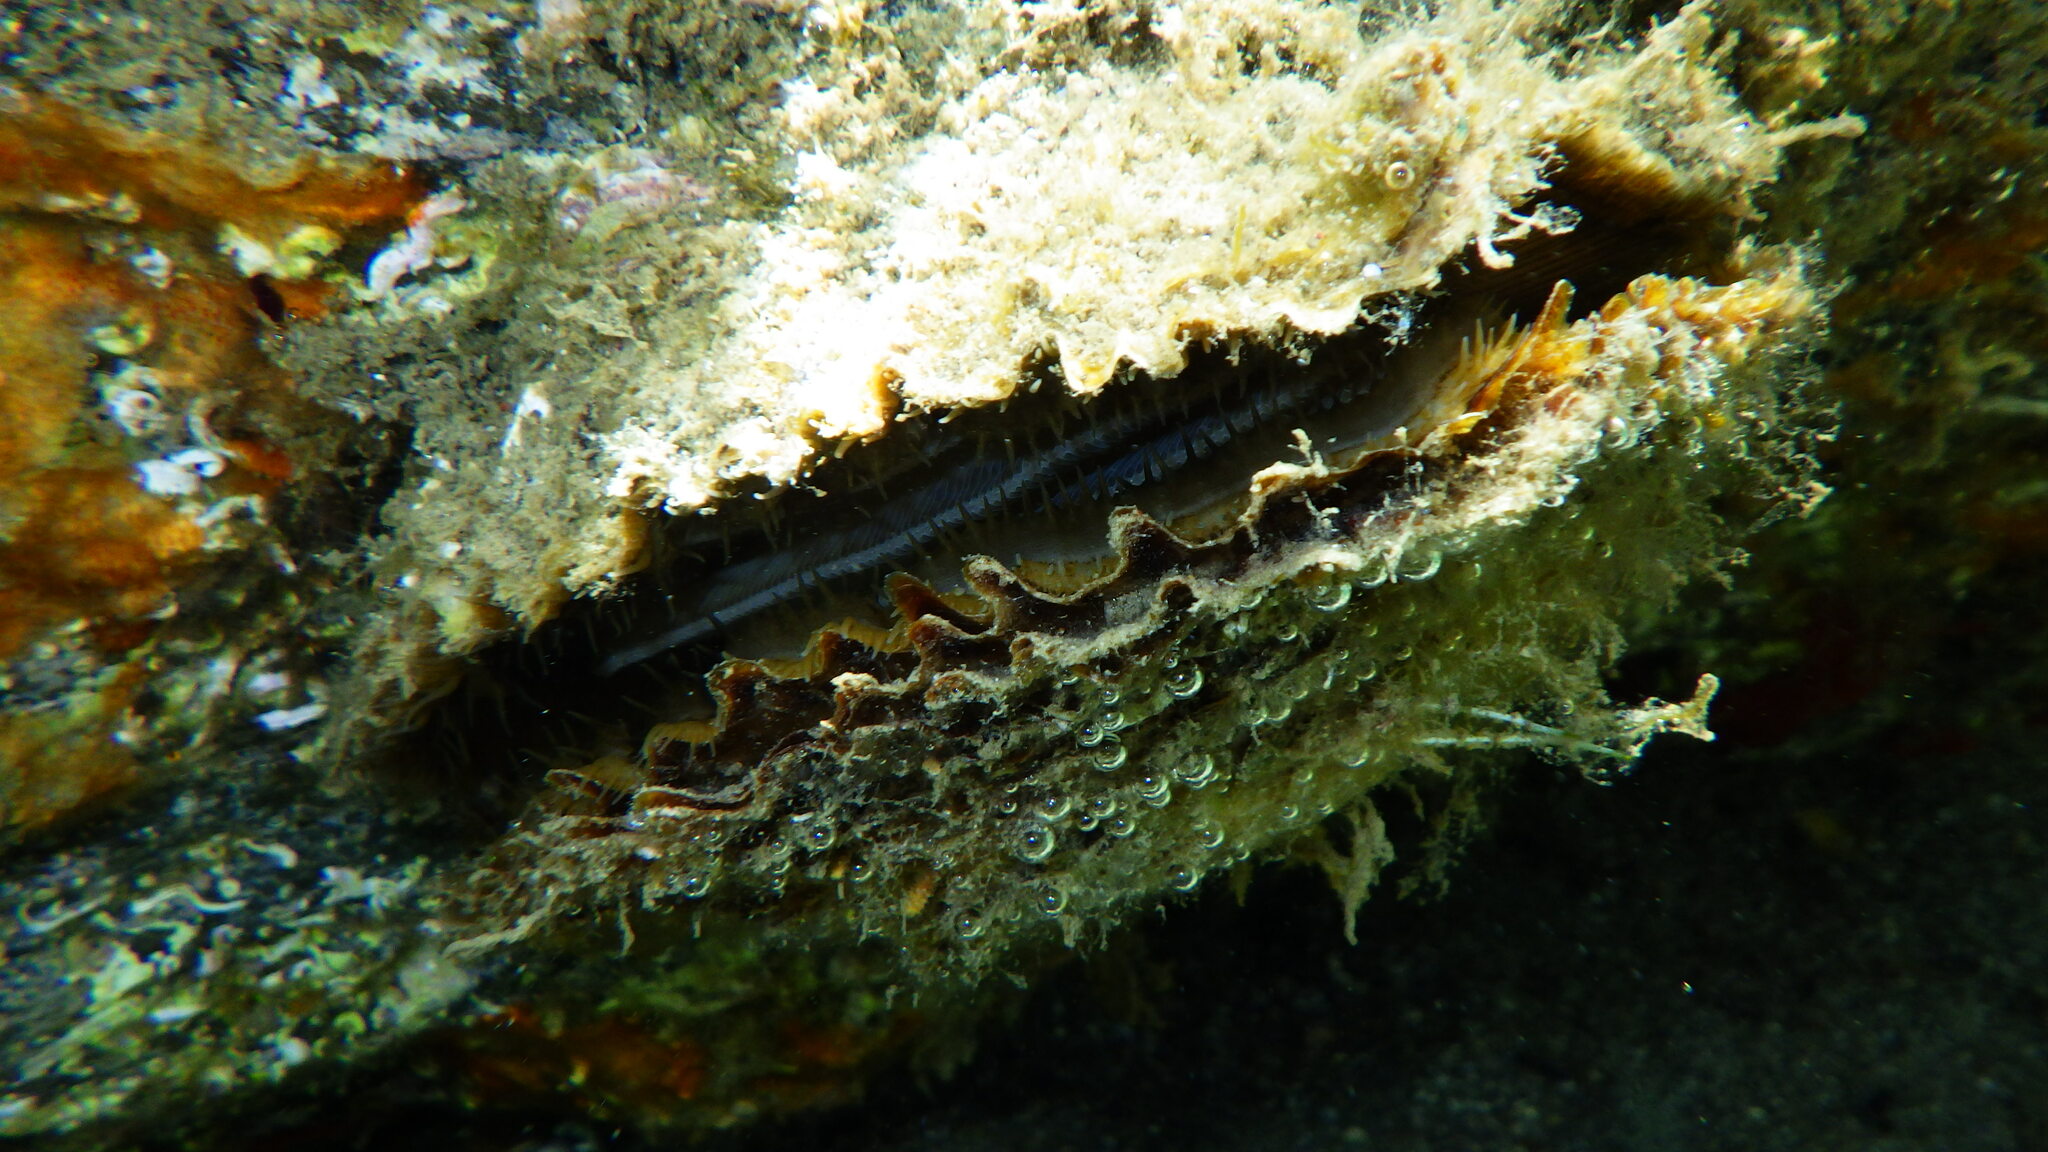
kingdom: Animalia
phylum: Mollusca
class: Bivalvia
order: Ostreida
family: Ostreidae
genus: Ostrea
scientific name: Ostrea edulis
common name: Flat oyster
